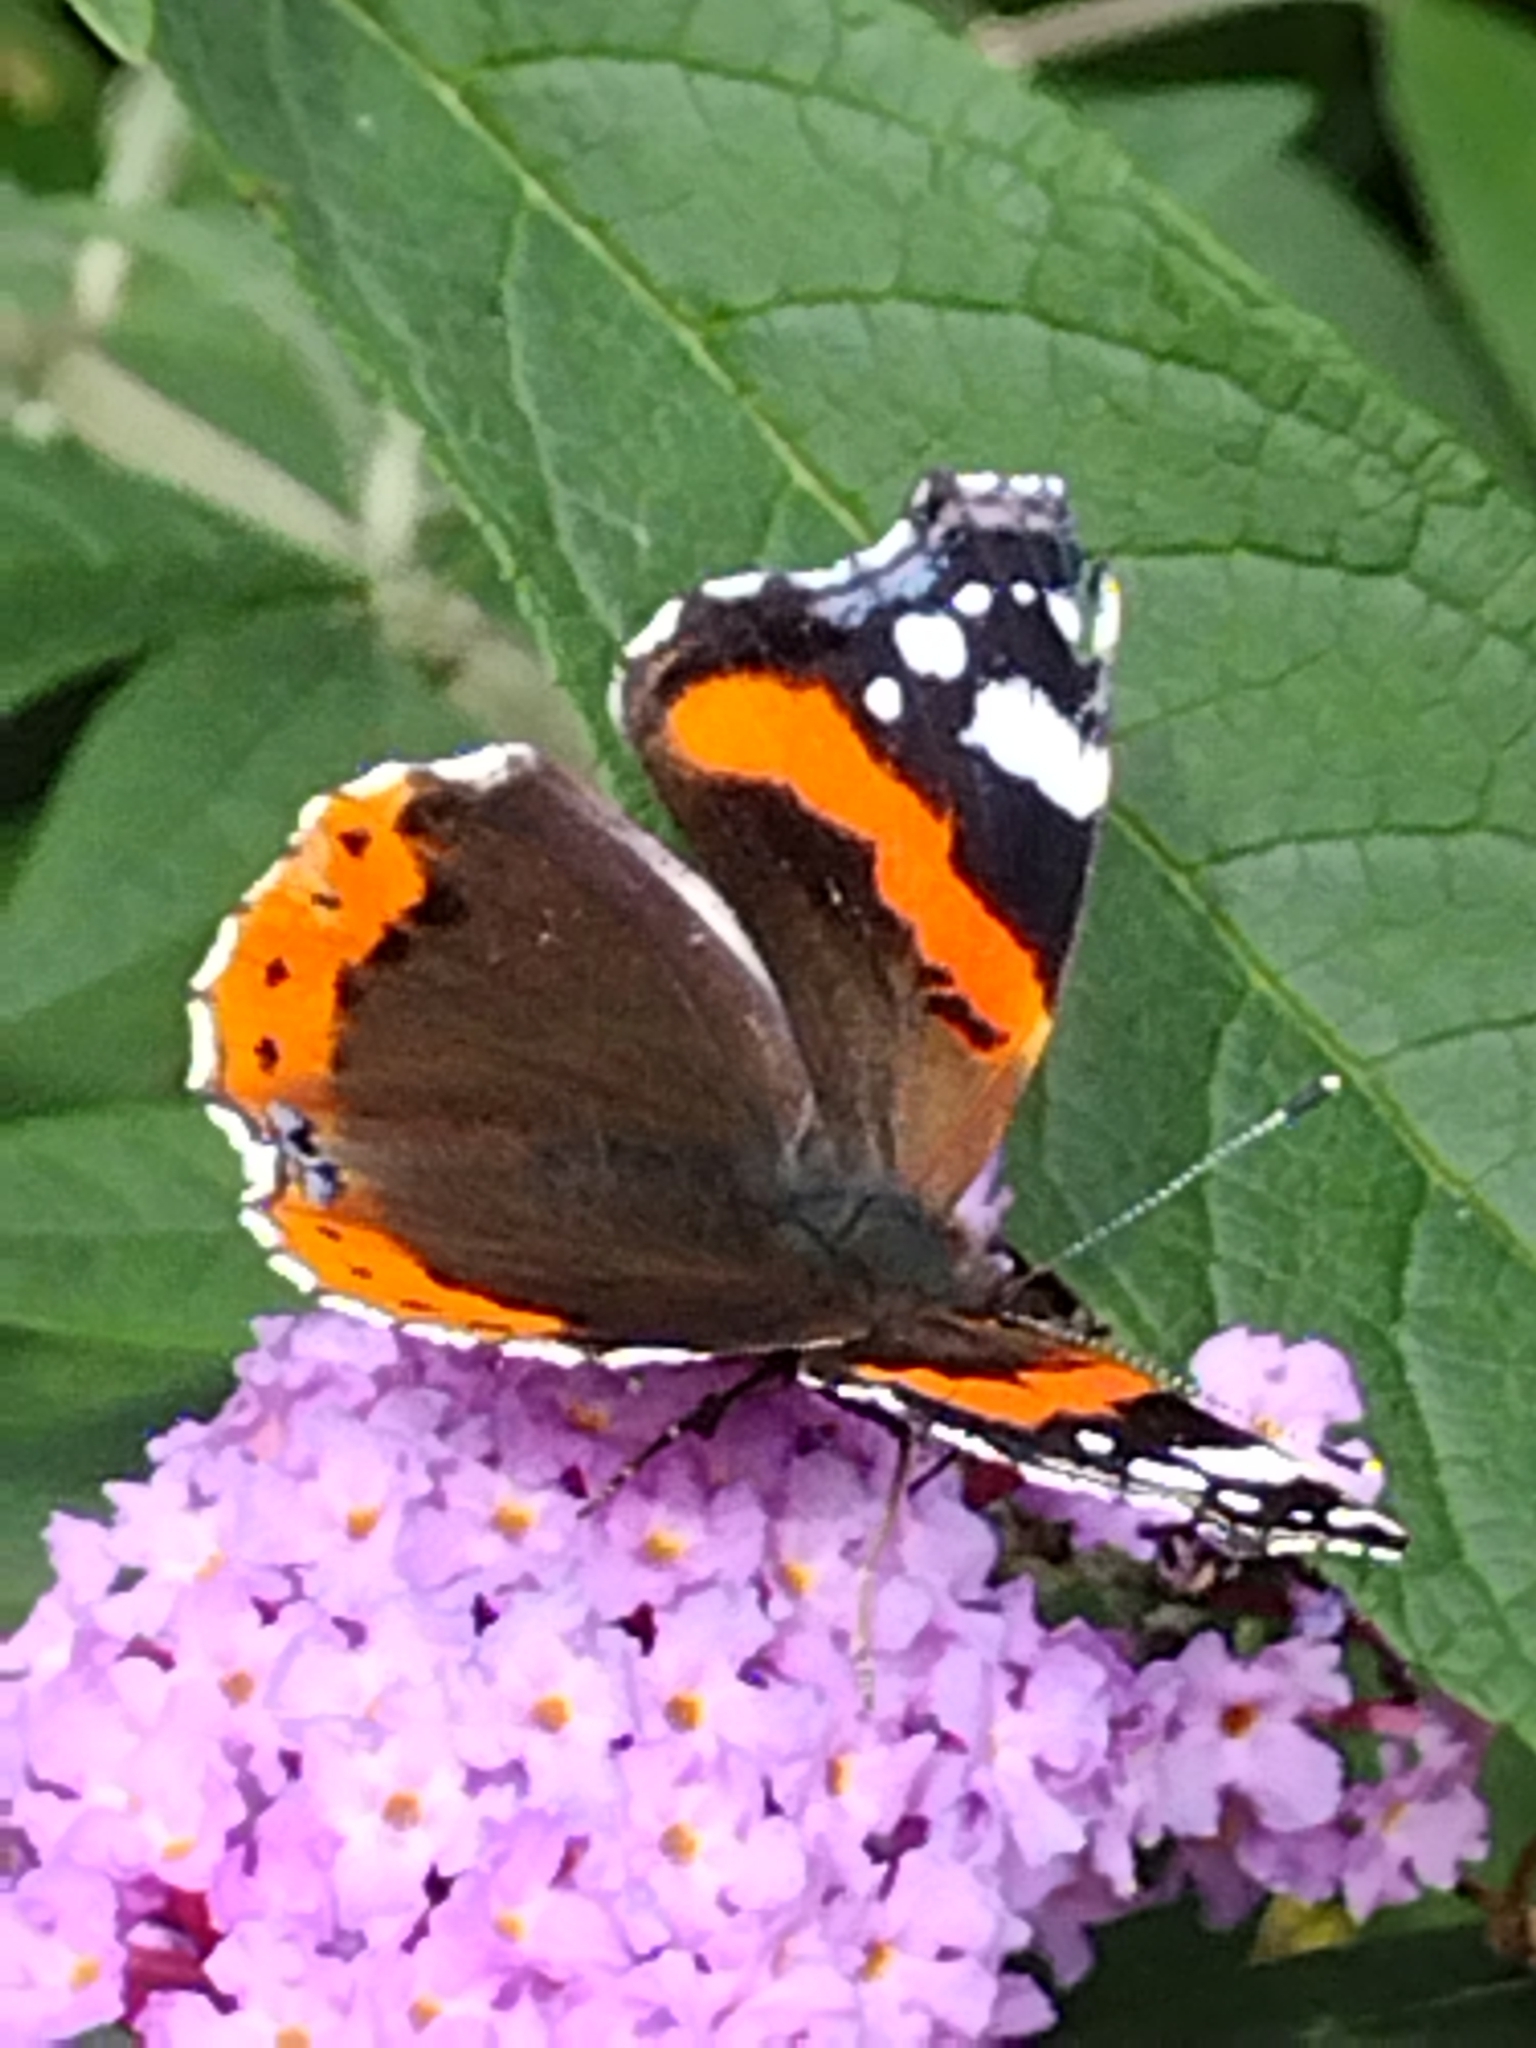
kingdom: Animalia
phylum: Arthropoda
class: Insecta
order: Lepidoptera
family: Nymphalidae
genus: Vanessa
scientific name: Vanessa atalanta
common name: Red admiral
